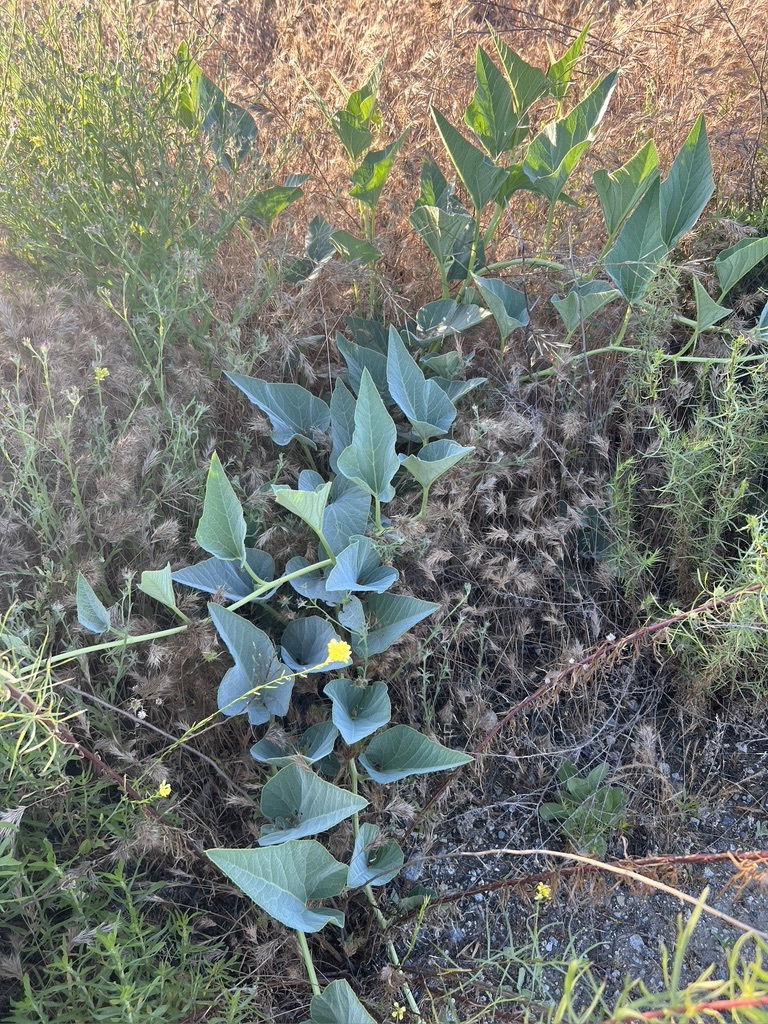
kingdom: Plantae
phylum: Tracheophyta
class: Magnoliopsida
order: Cucurbitales
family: Cucurbitaceae
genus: Cucurbita
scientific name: Cucurbita foetidissima
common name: Buffalo gourd
